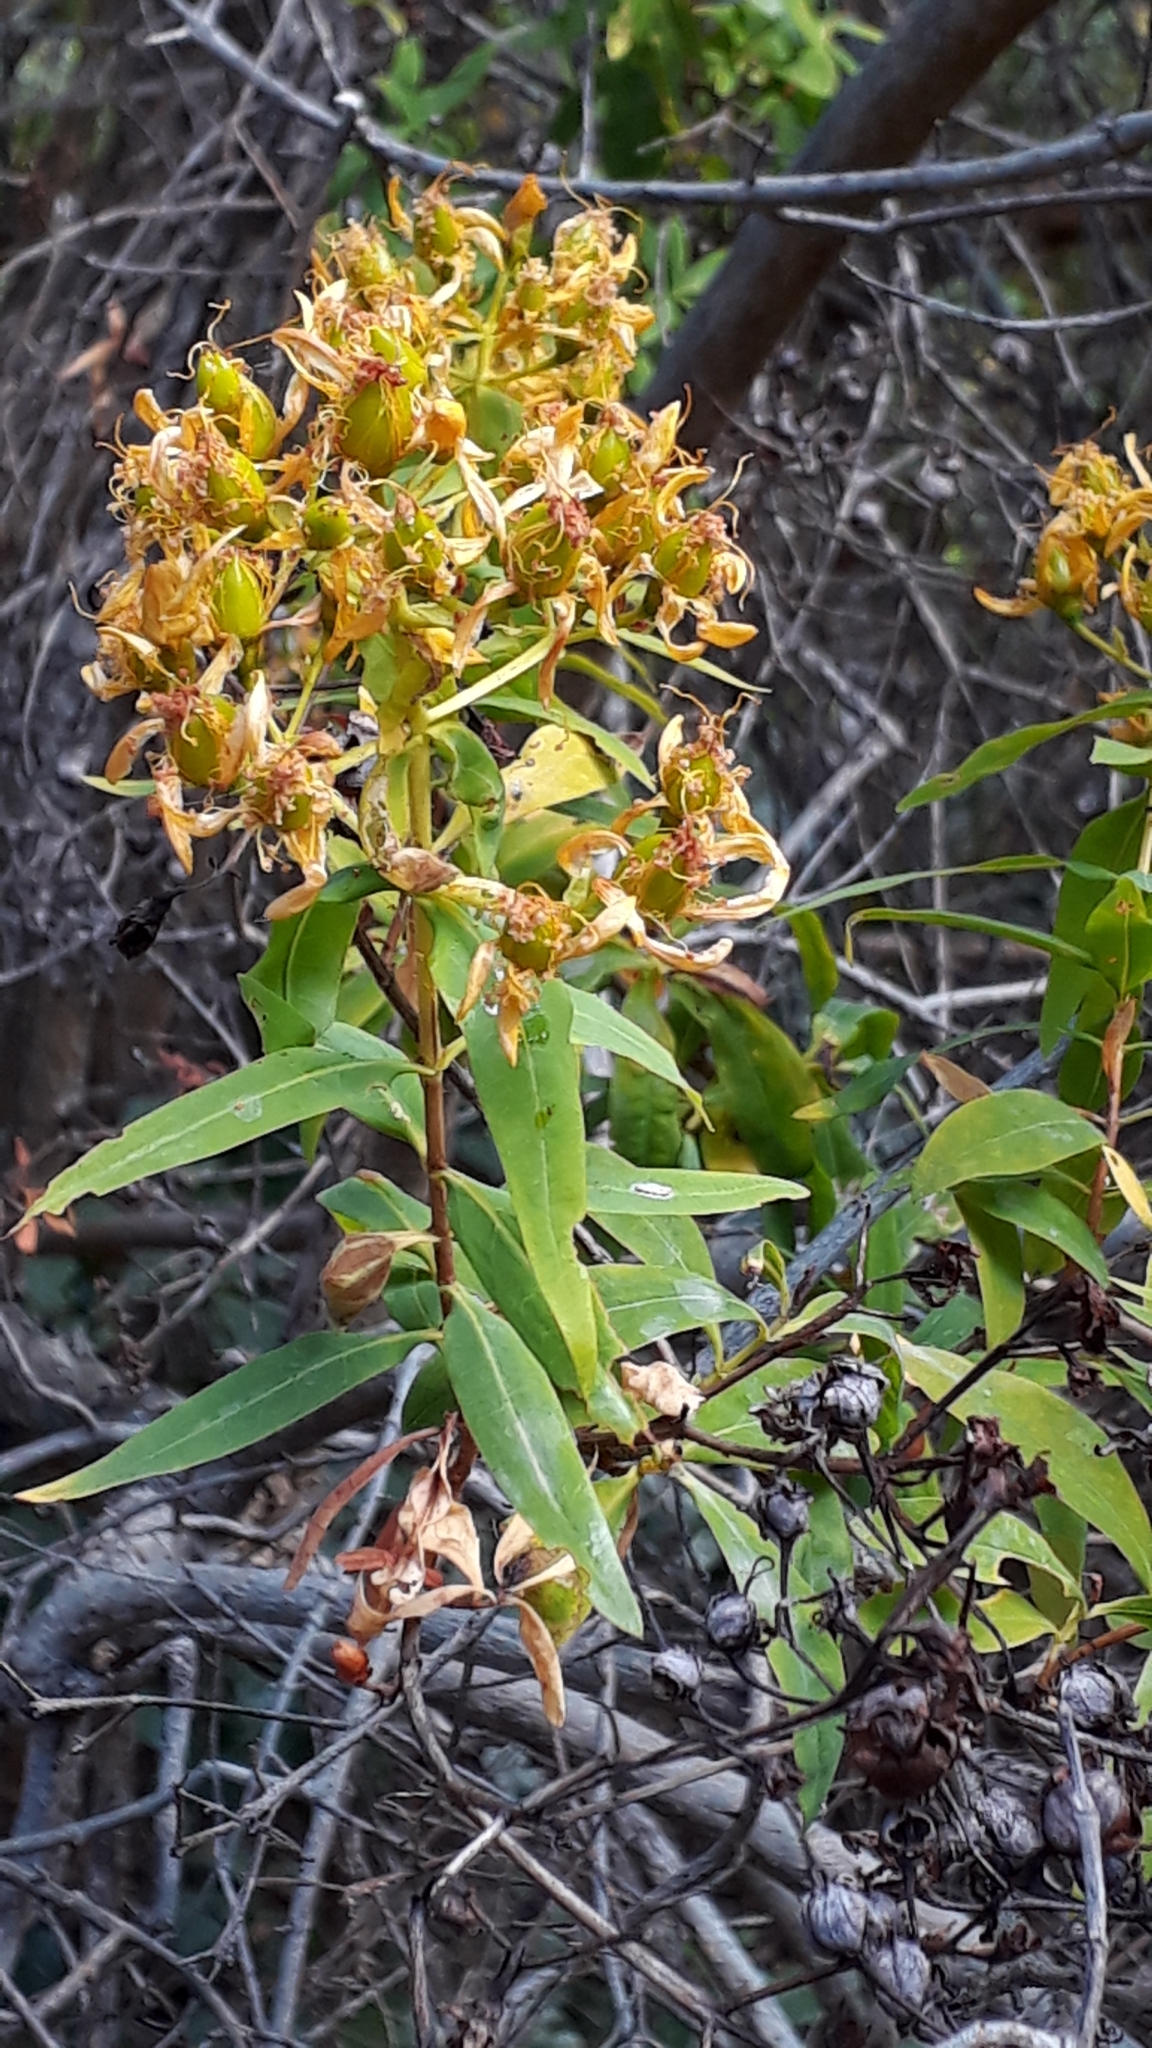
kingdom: Plantae
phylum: Tracheophyta
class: Magnoliopsida
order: Malpighiales
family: Hypericaceae
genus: Hypericum
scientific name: Hypericum canariense
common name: Canary island st. johnswort
